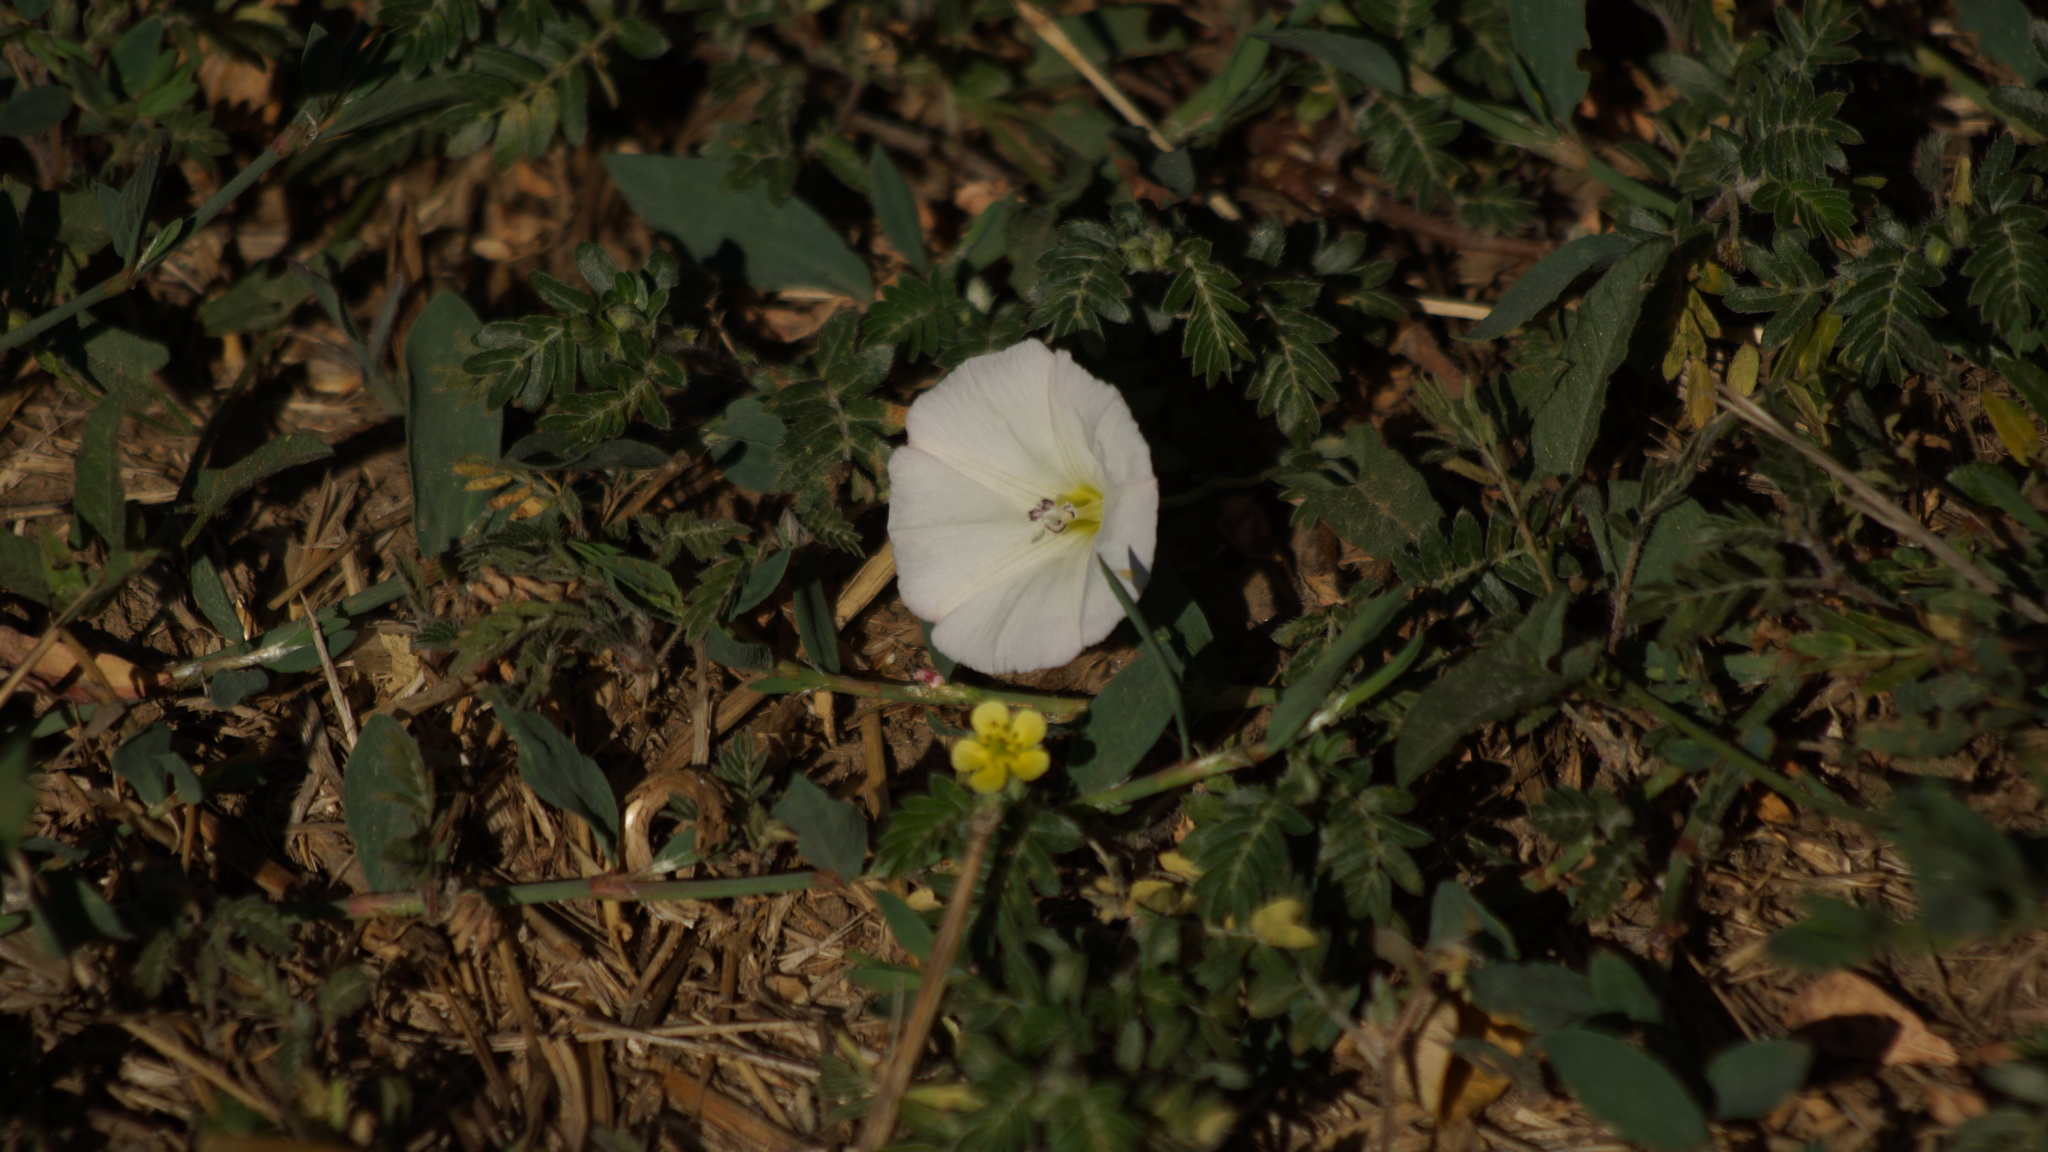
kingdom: Plantae
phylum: Tracheophyta
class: Magnoliopsida
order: Solanales
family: Convolvulaceae
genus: Convolvulus
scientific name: Convolvulus arvensis
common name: Field bindweed
